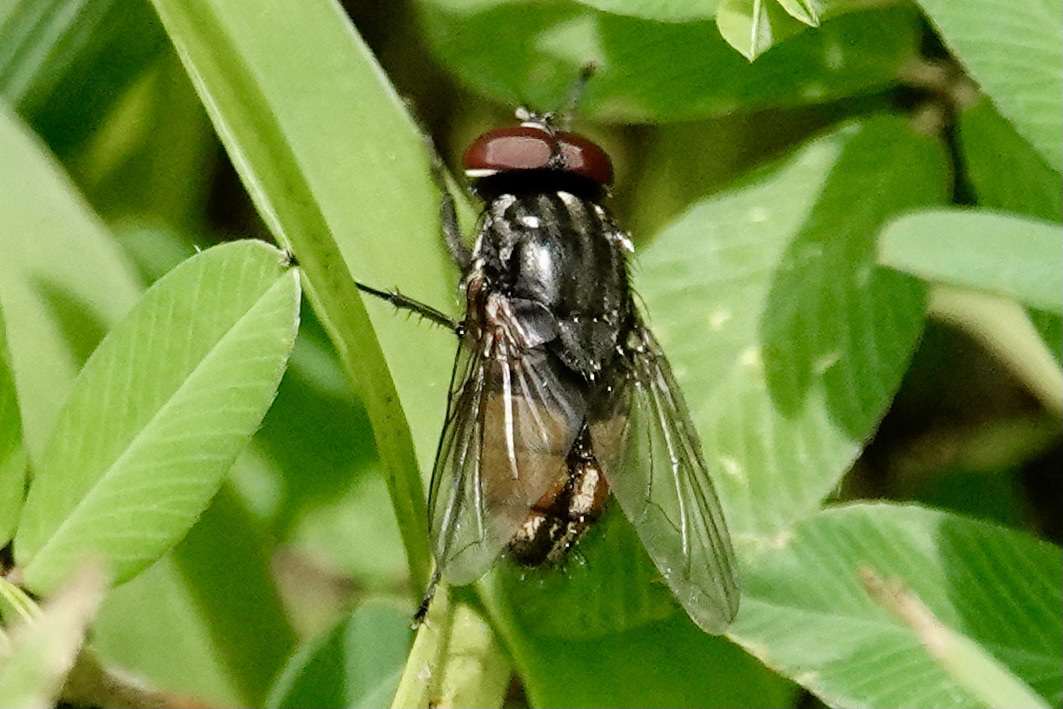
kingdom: Animalia
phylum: Arthropoda
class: Insecta
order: Diptera
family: Muscidae
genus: Musca
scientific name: Musca autumnalis
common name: Face fly
